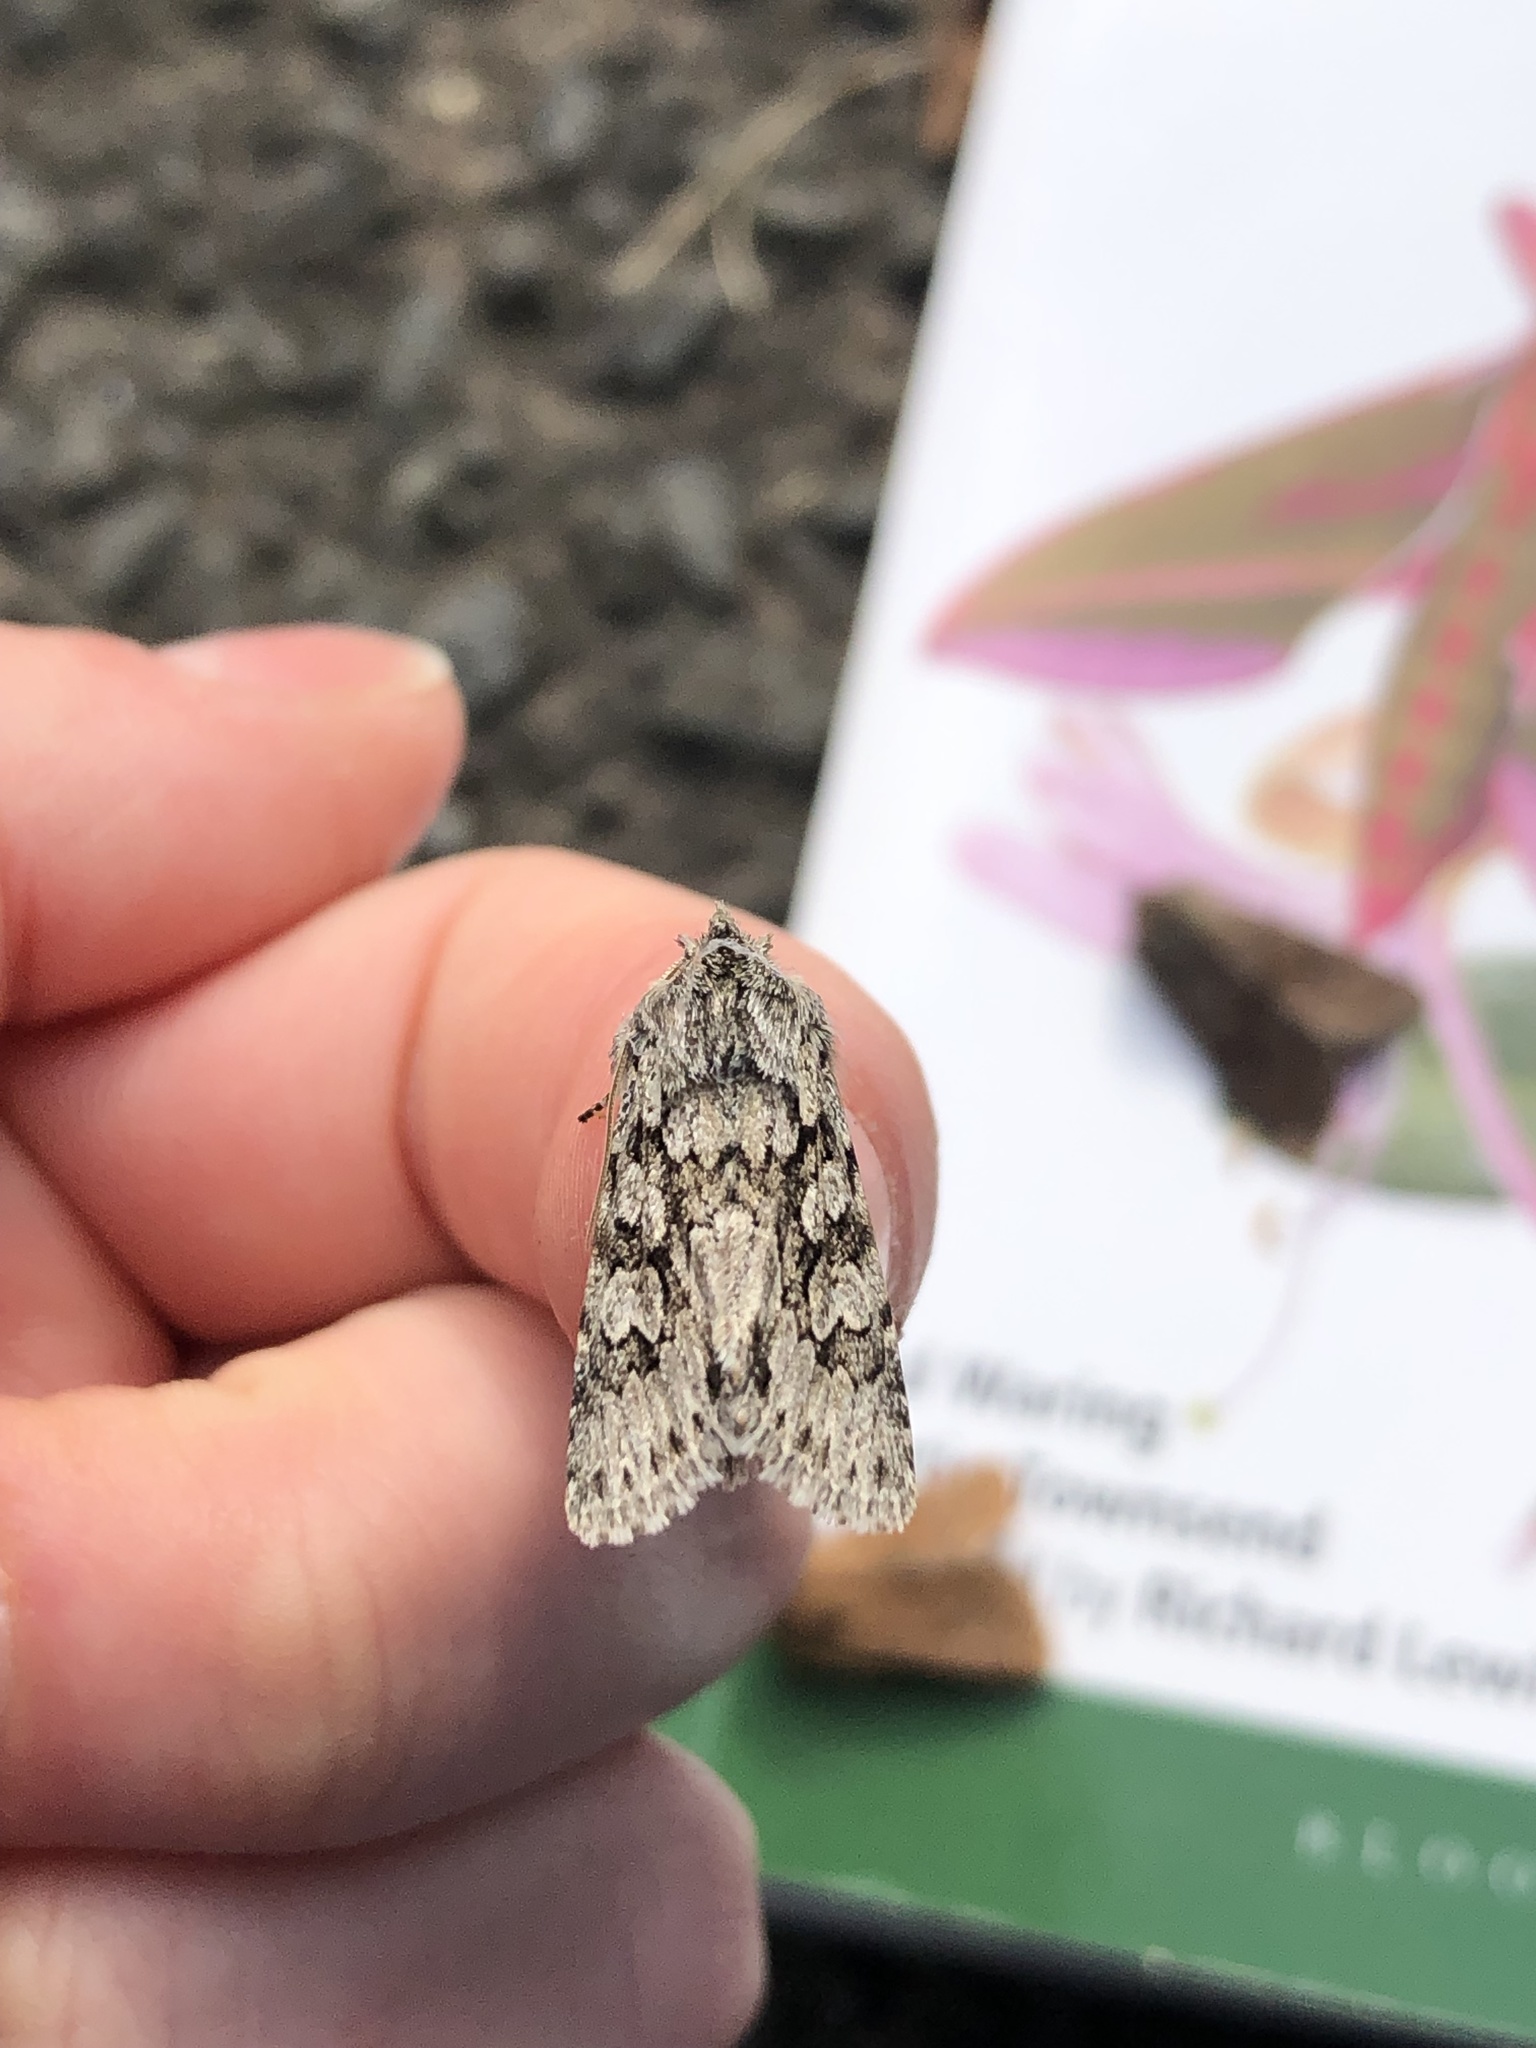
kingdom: Animalia
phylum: Arthropoda
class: Insecta
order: Lepidoptera
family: Noctuidae
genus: Xylocampa
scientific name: Xylocampa areola
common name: Early grey
